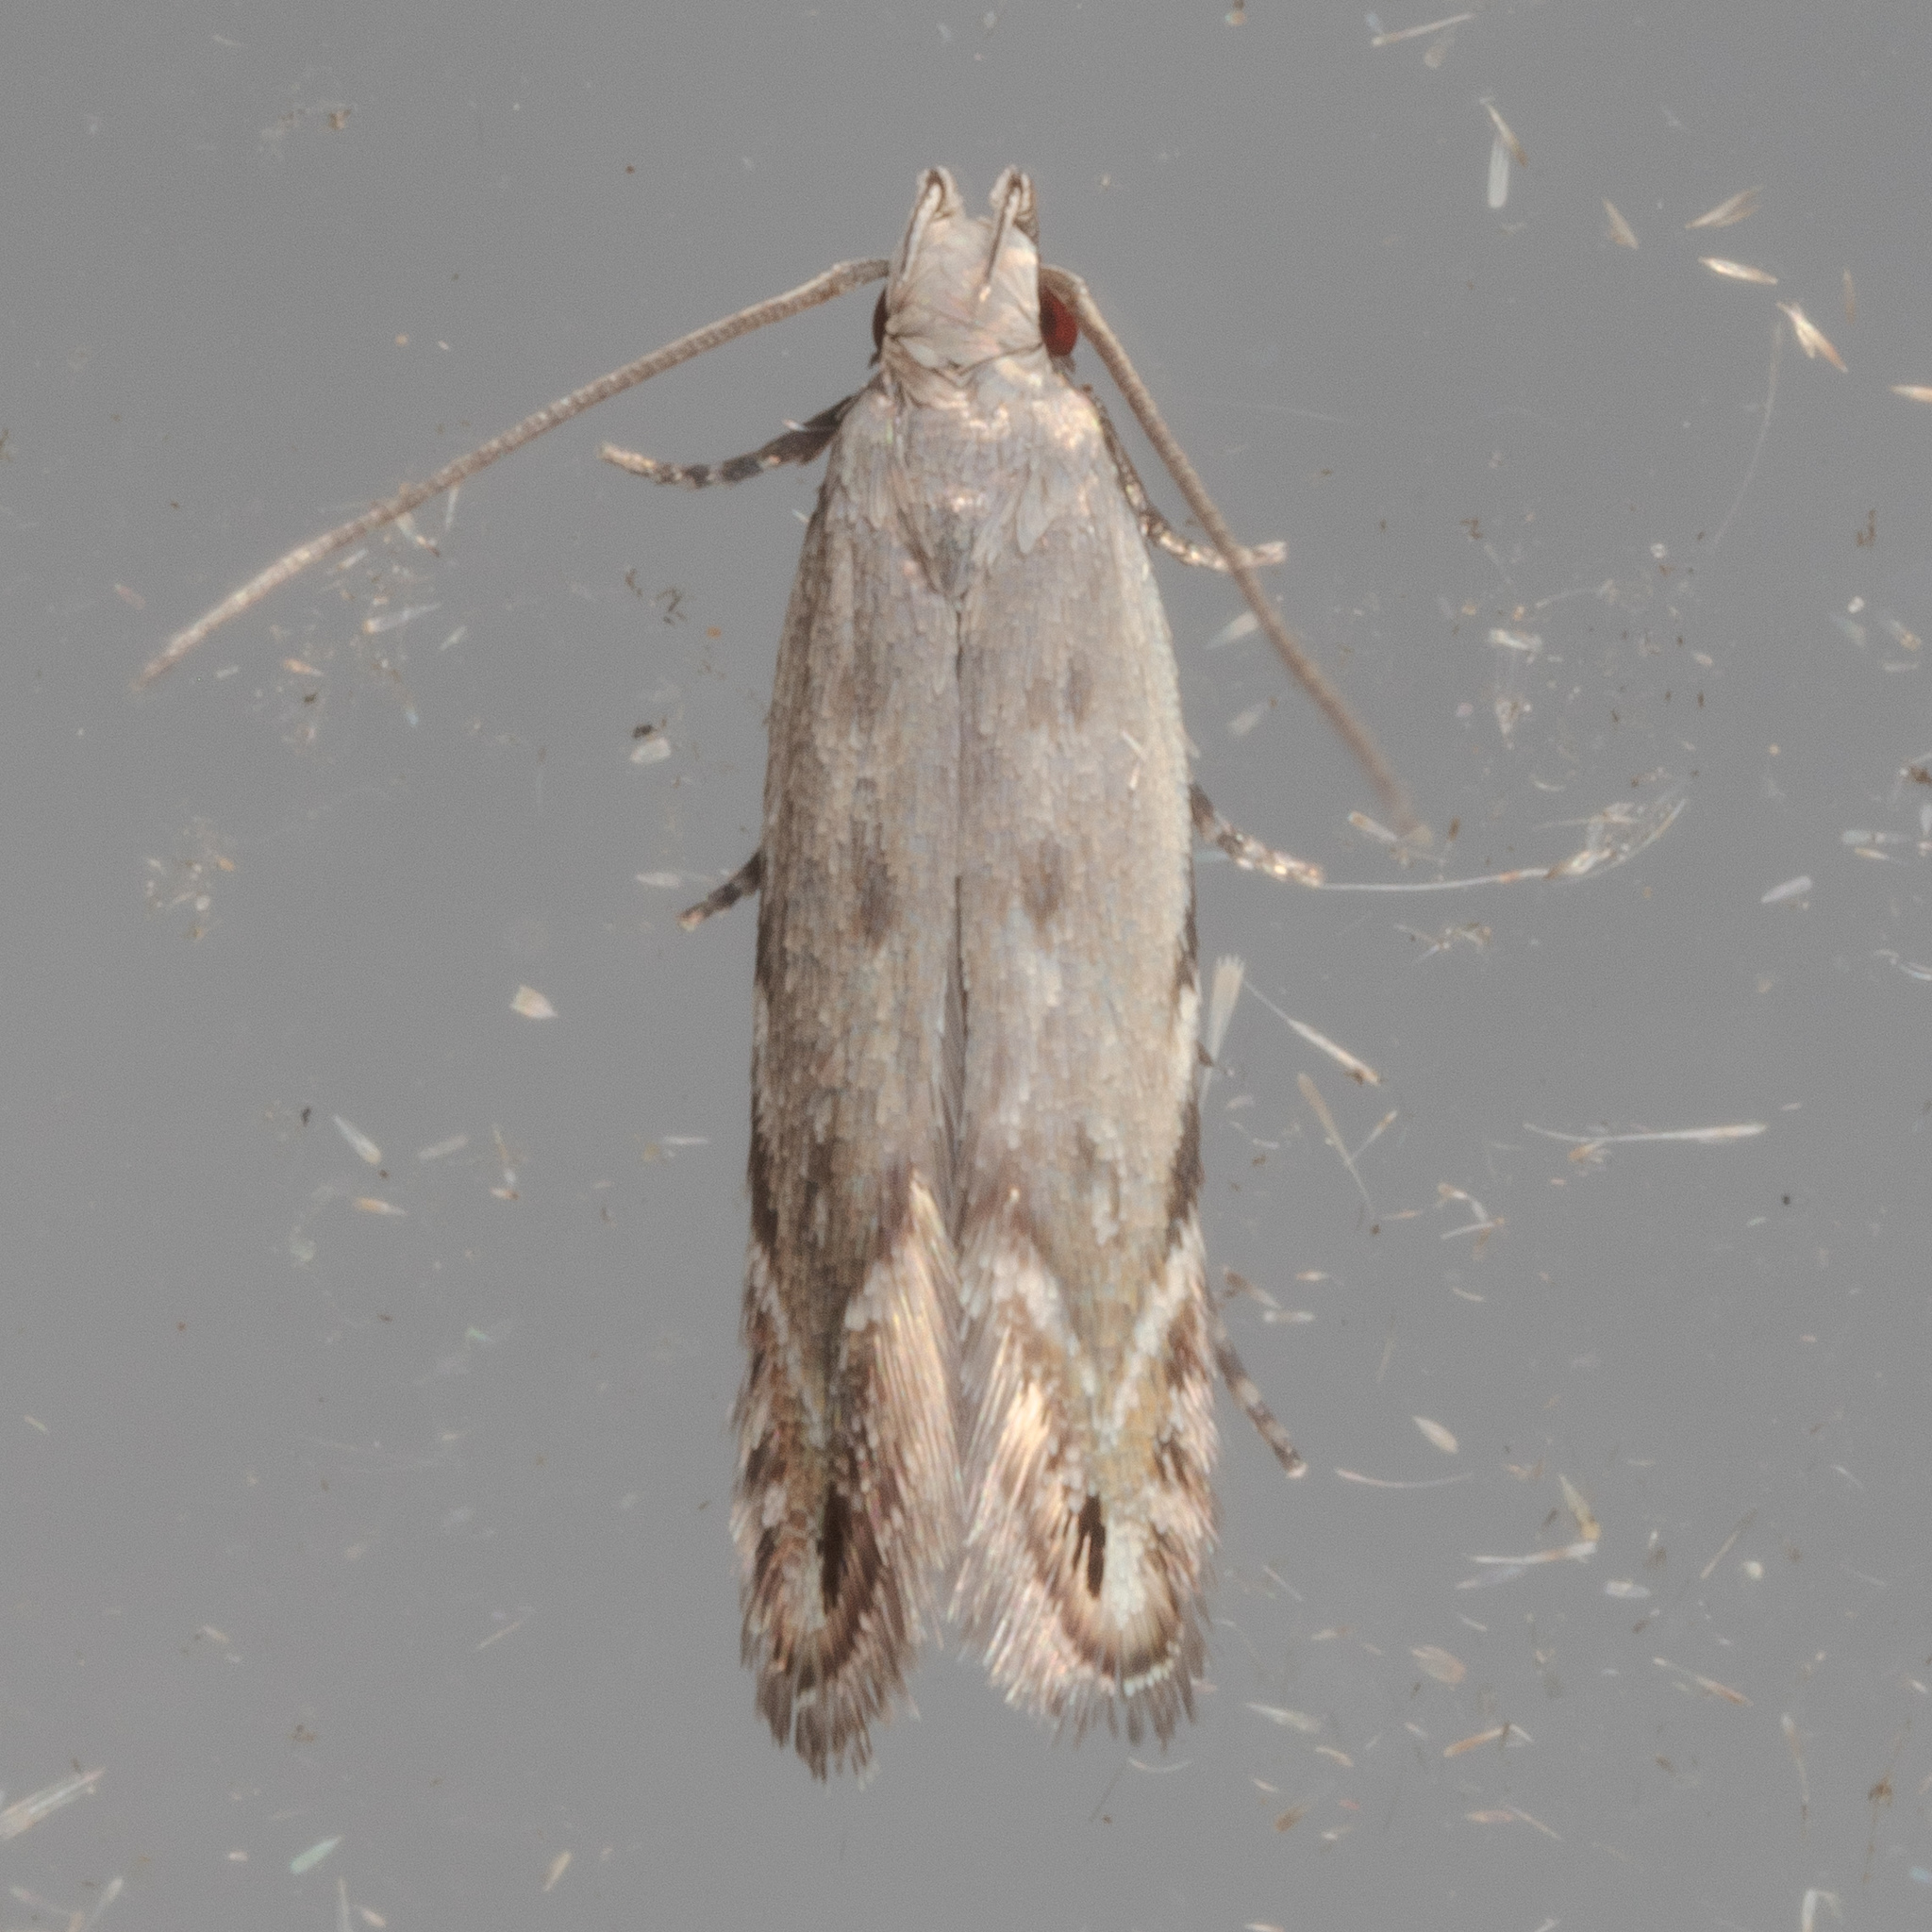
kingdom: Animalia
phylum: Arthropoda
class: Insecta
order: Lepidoptera
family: Gelechiidae
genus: Battaristis
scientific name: Battaristis concinnusella
